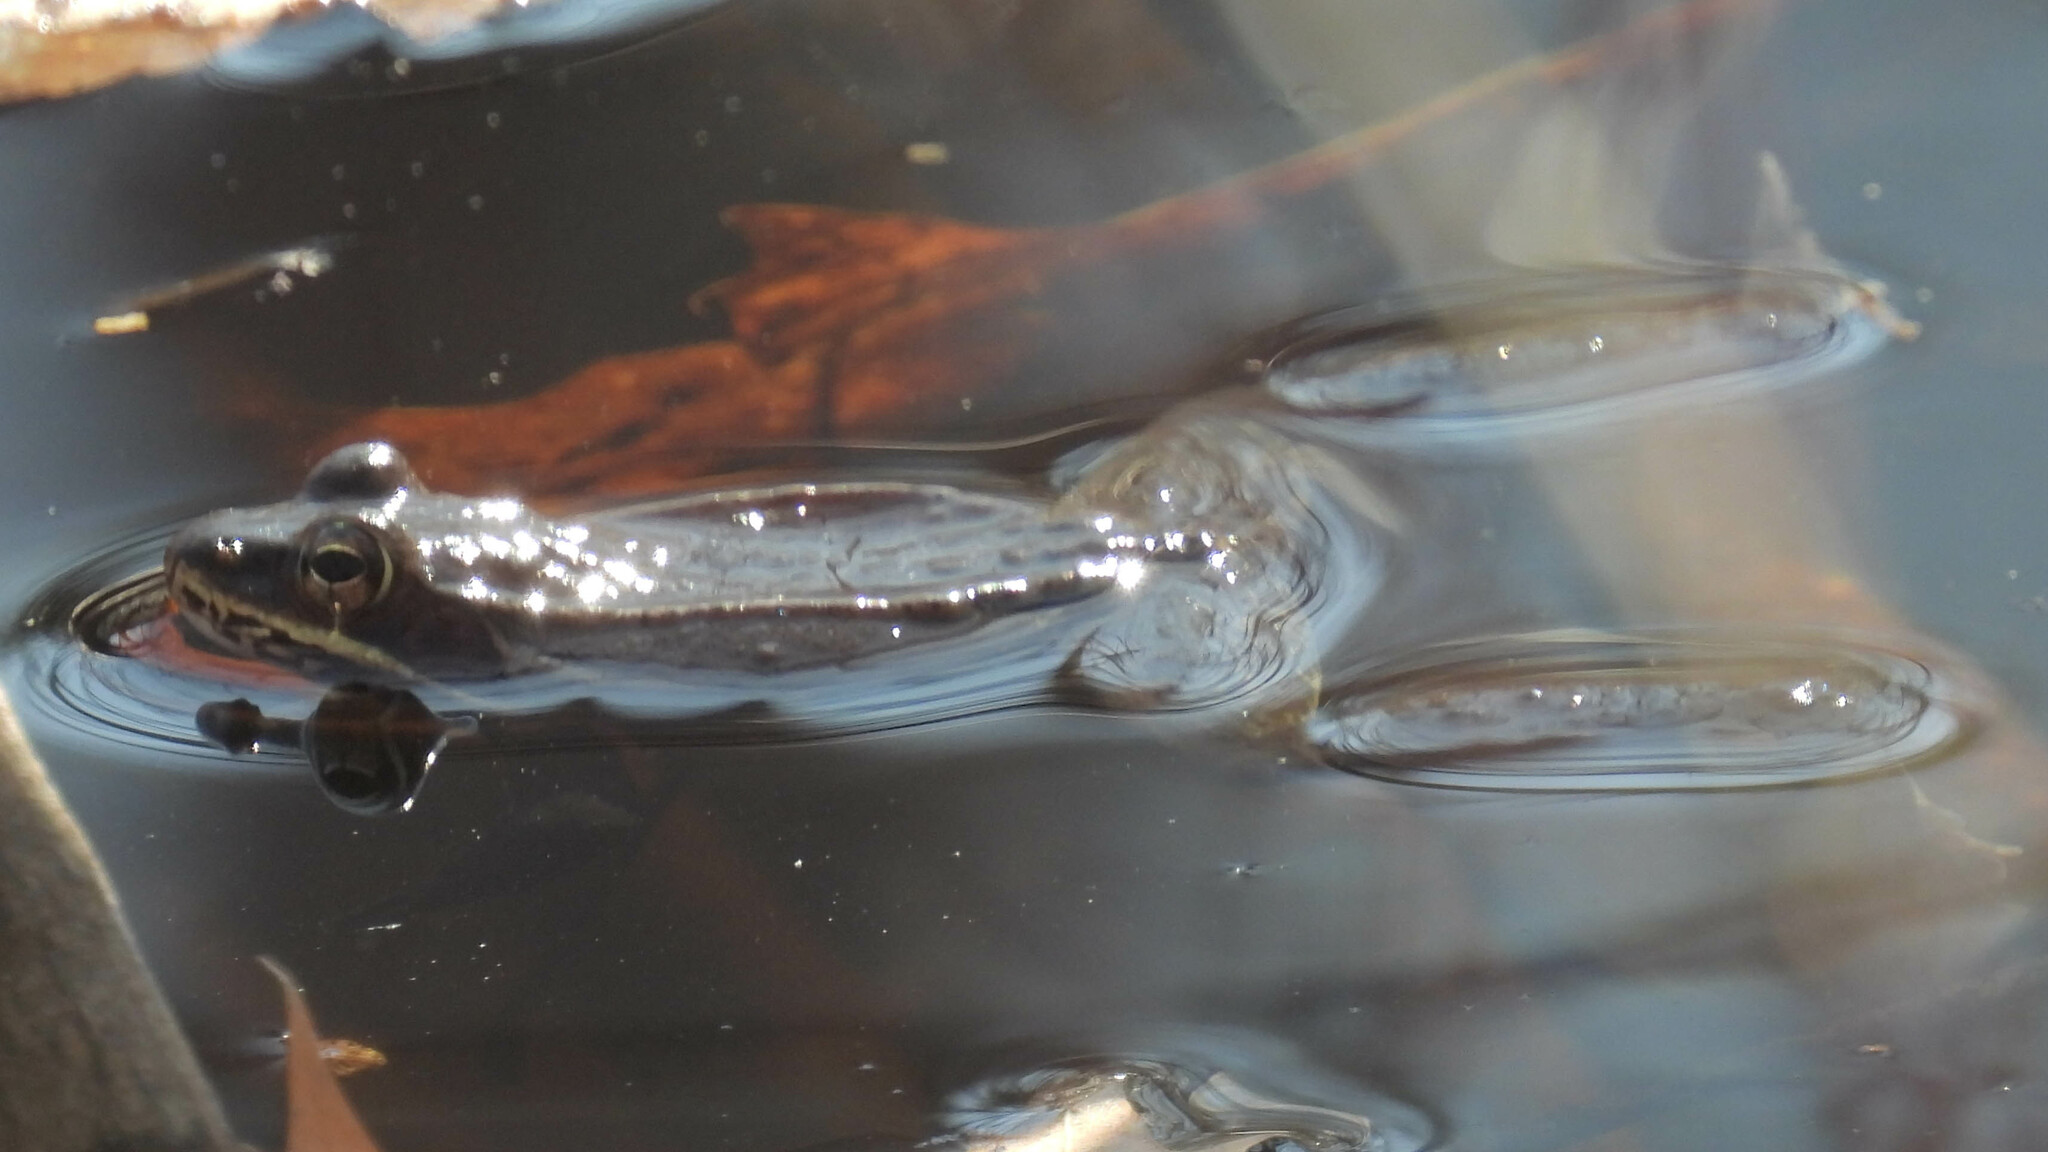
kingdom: Animalia
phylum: Chordata
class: Amphibia
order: Anura
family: Ranidae
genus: Lithobates
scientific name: Lithobates sylvaticus
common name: Wood frog
